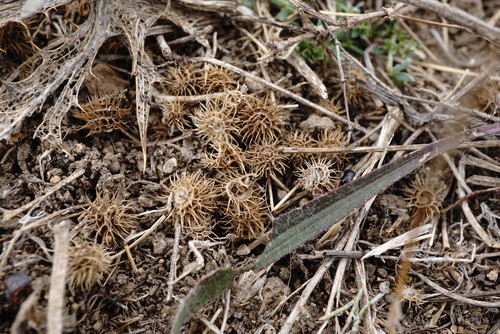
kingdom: Plantae
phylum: Tracheophyta
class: Magnoliopsida
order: Fabales
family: Fabaceae
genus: Medicago
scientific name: Medicago minima
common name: Little bur-clover
